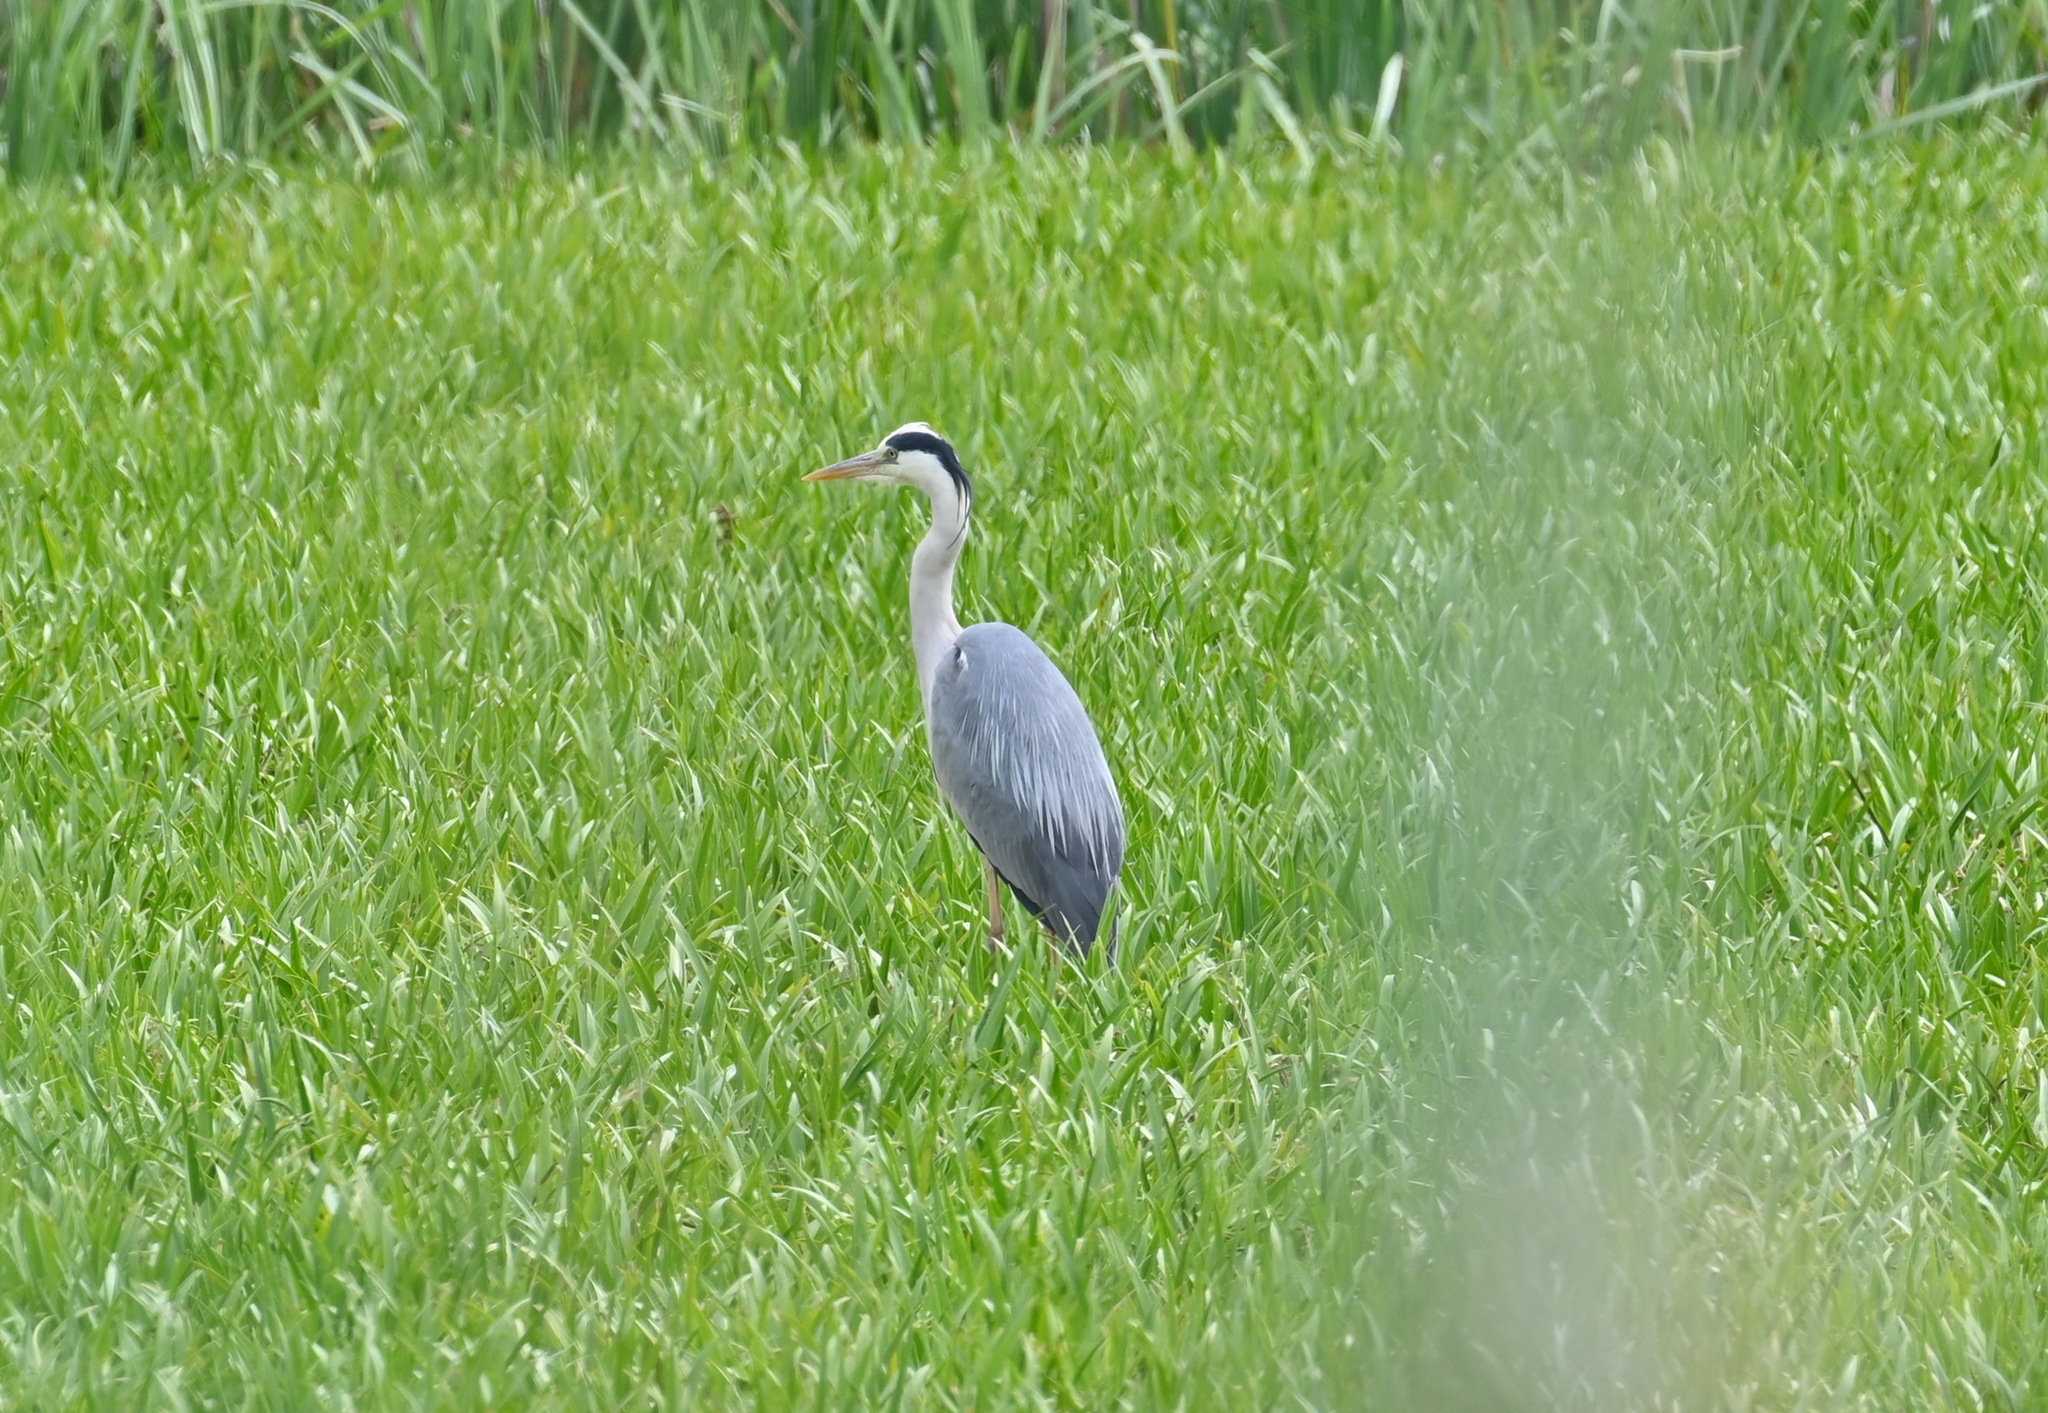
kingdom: Animalia
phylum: Chordata
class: Aves
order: Pelecaniformes
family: Ardeidae
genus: Ardea
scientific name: Ardea cinerea
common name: Grey heron
